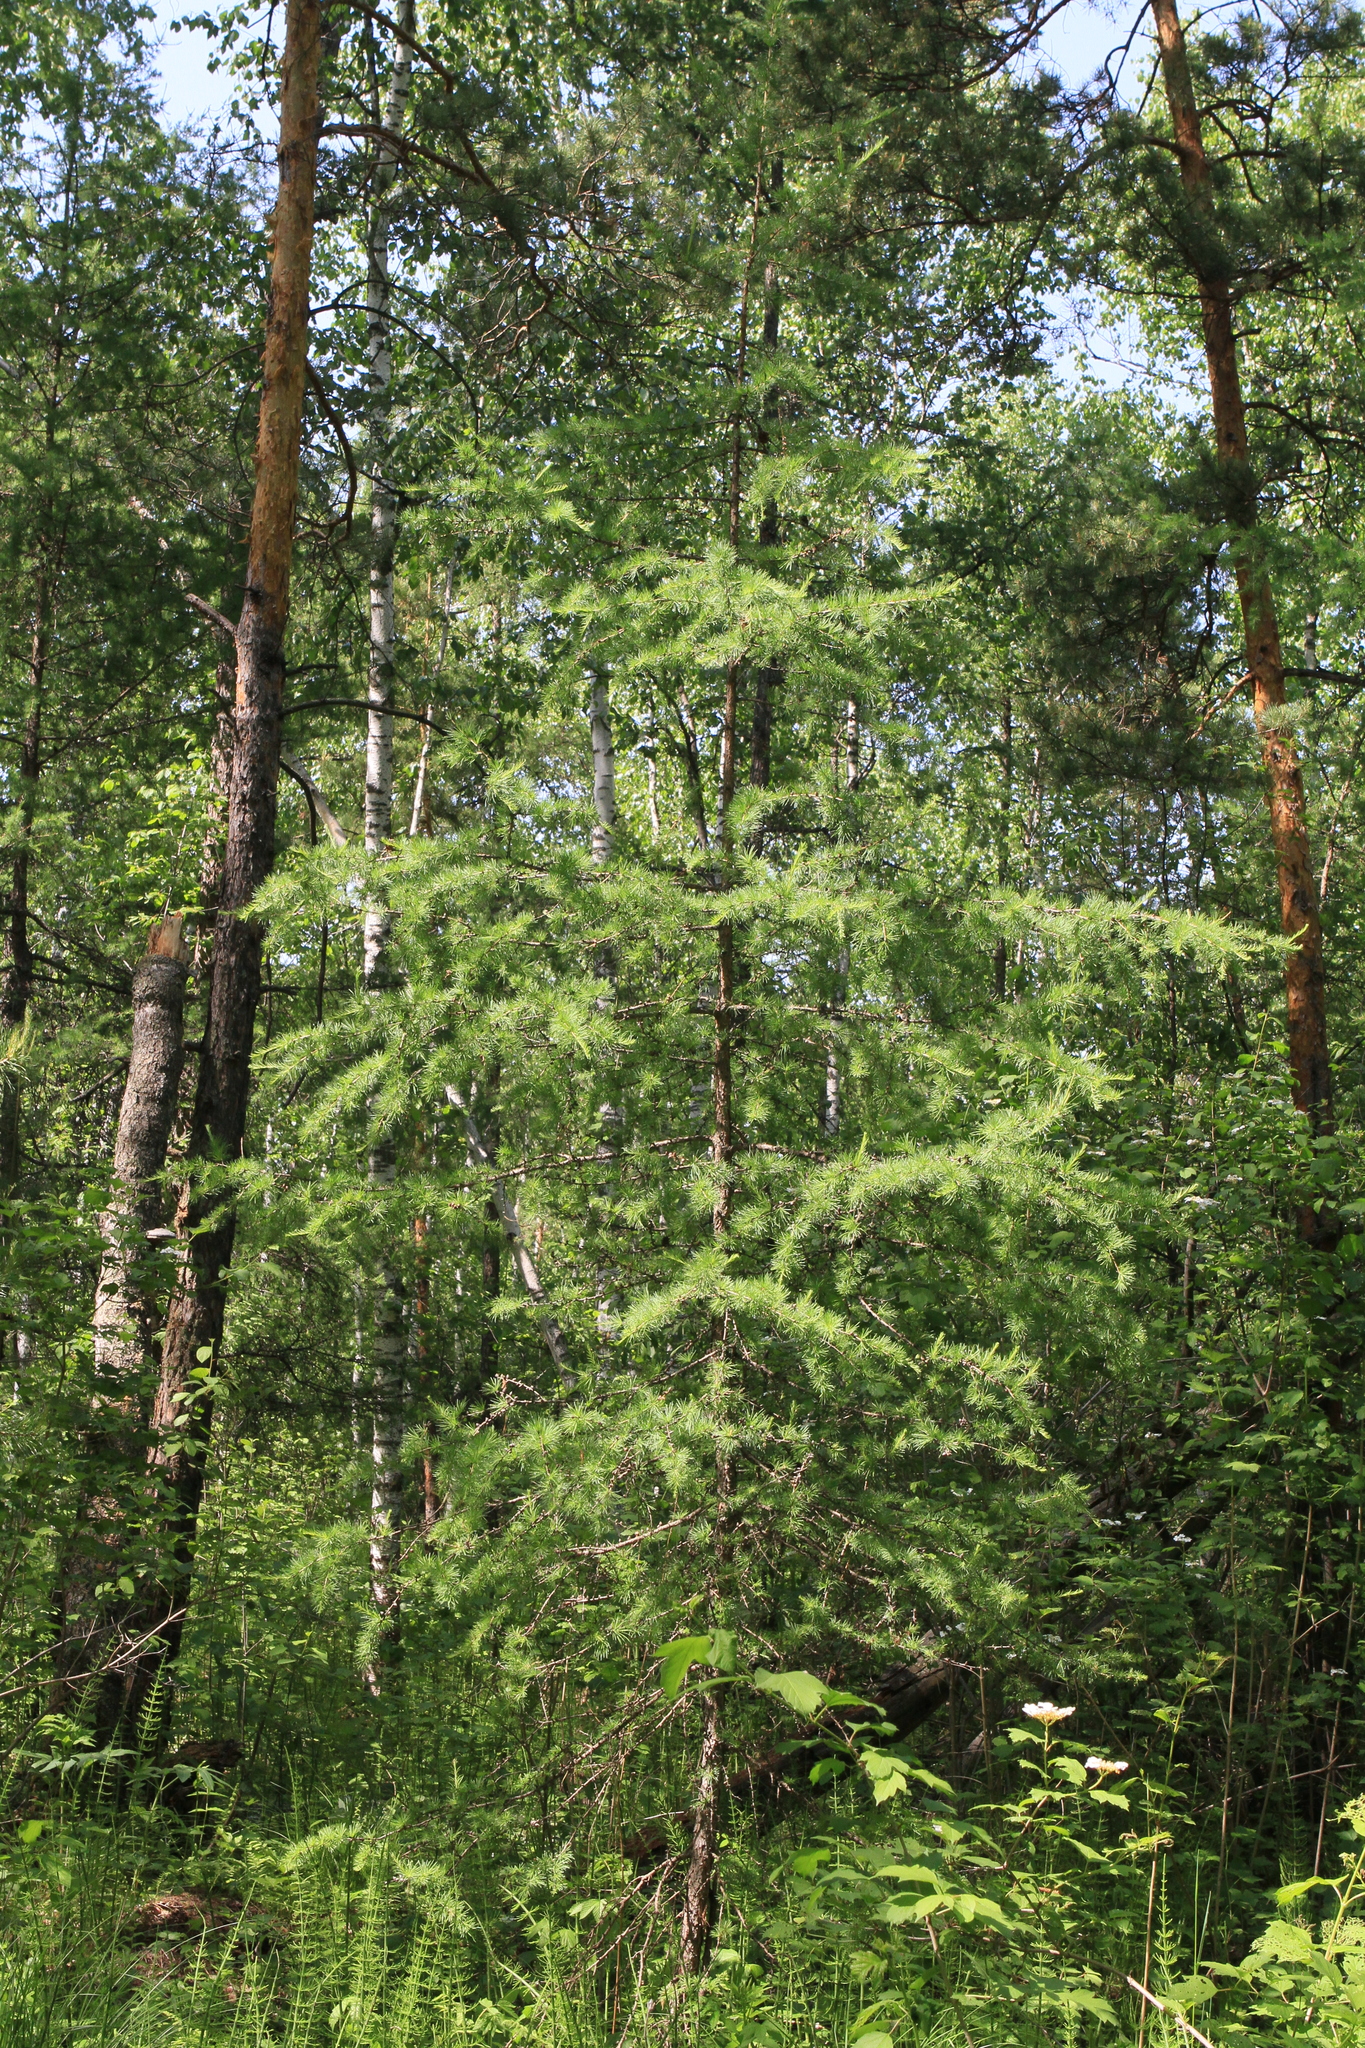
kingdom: Plantae
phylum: Tracheophyta
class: Pinopsida
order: Pinales
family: Pinaceae
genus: Larix
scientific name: Larix sibirica
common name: Siberian larch
